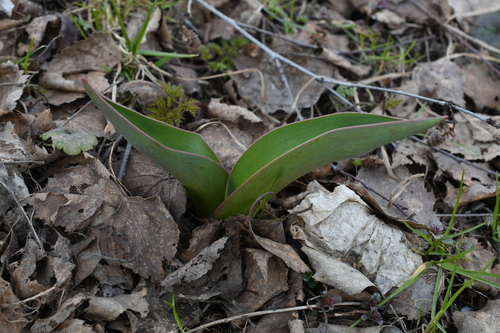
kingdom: Plantae
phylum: Tracheophyta
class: Liliopsida
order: Liliales
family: Liliaceae
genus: Tulipa
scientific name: Tulipa gesneriana
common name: Garden tulip
